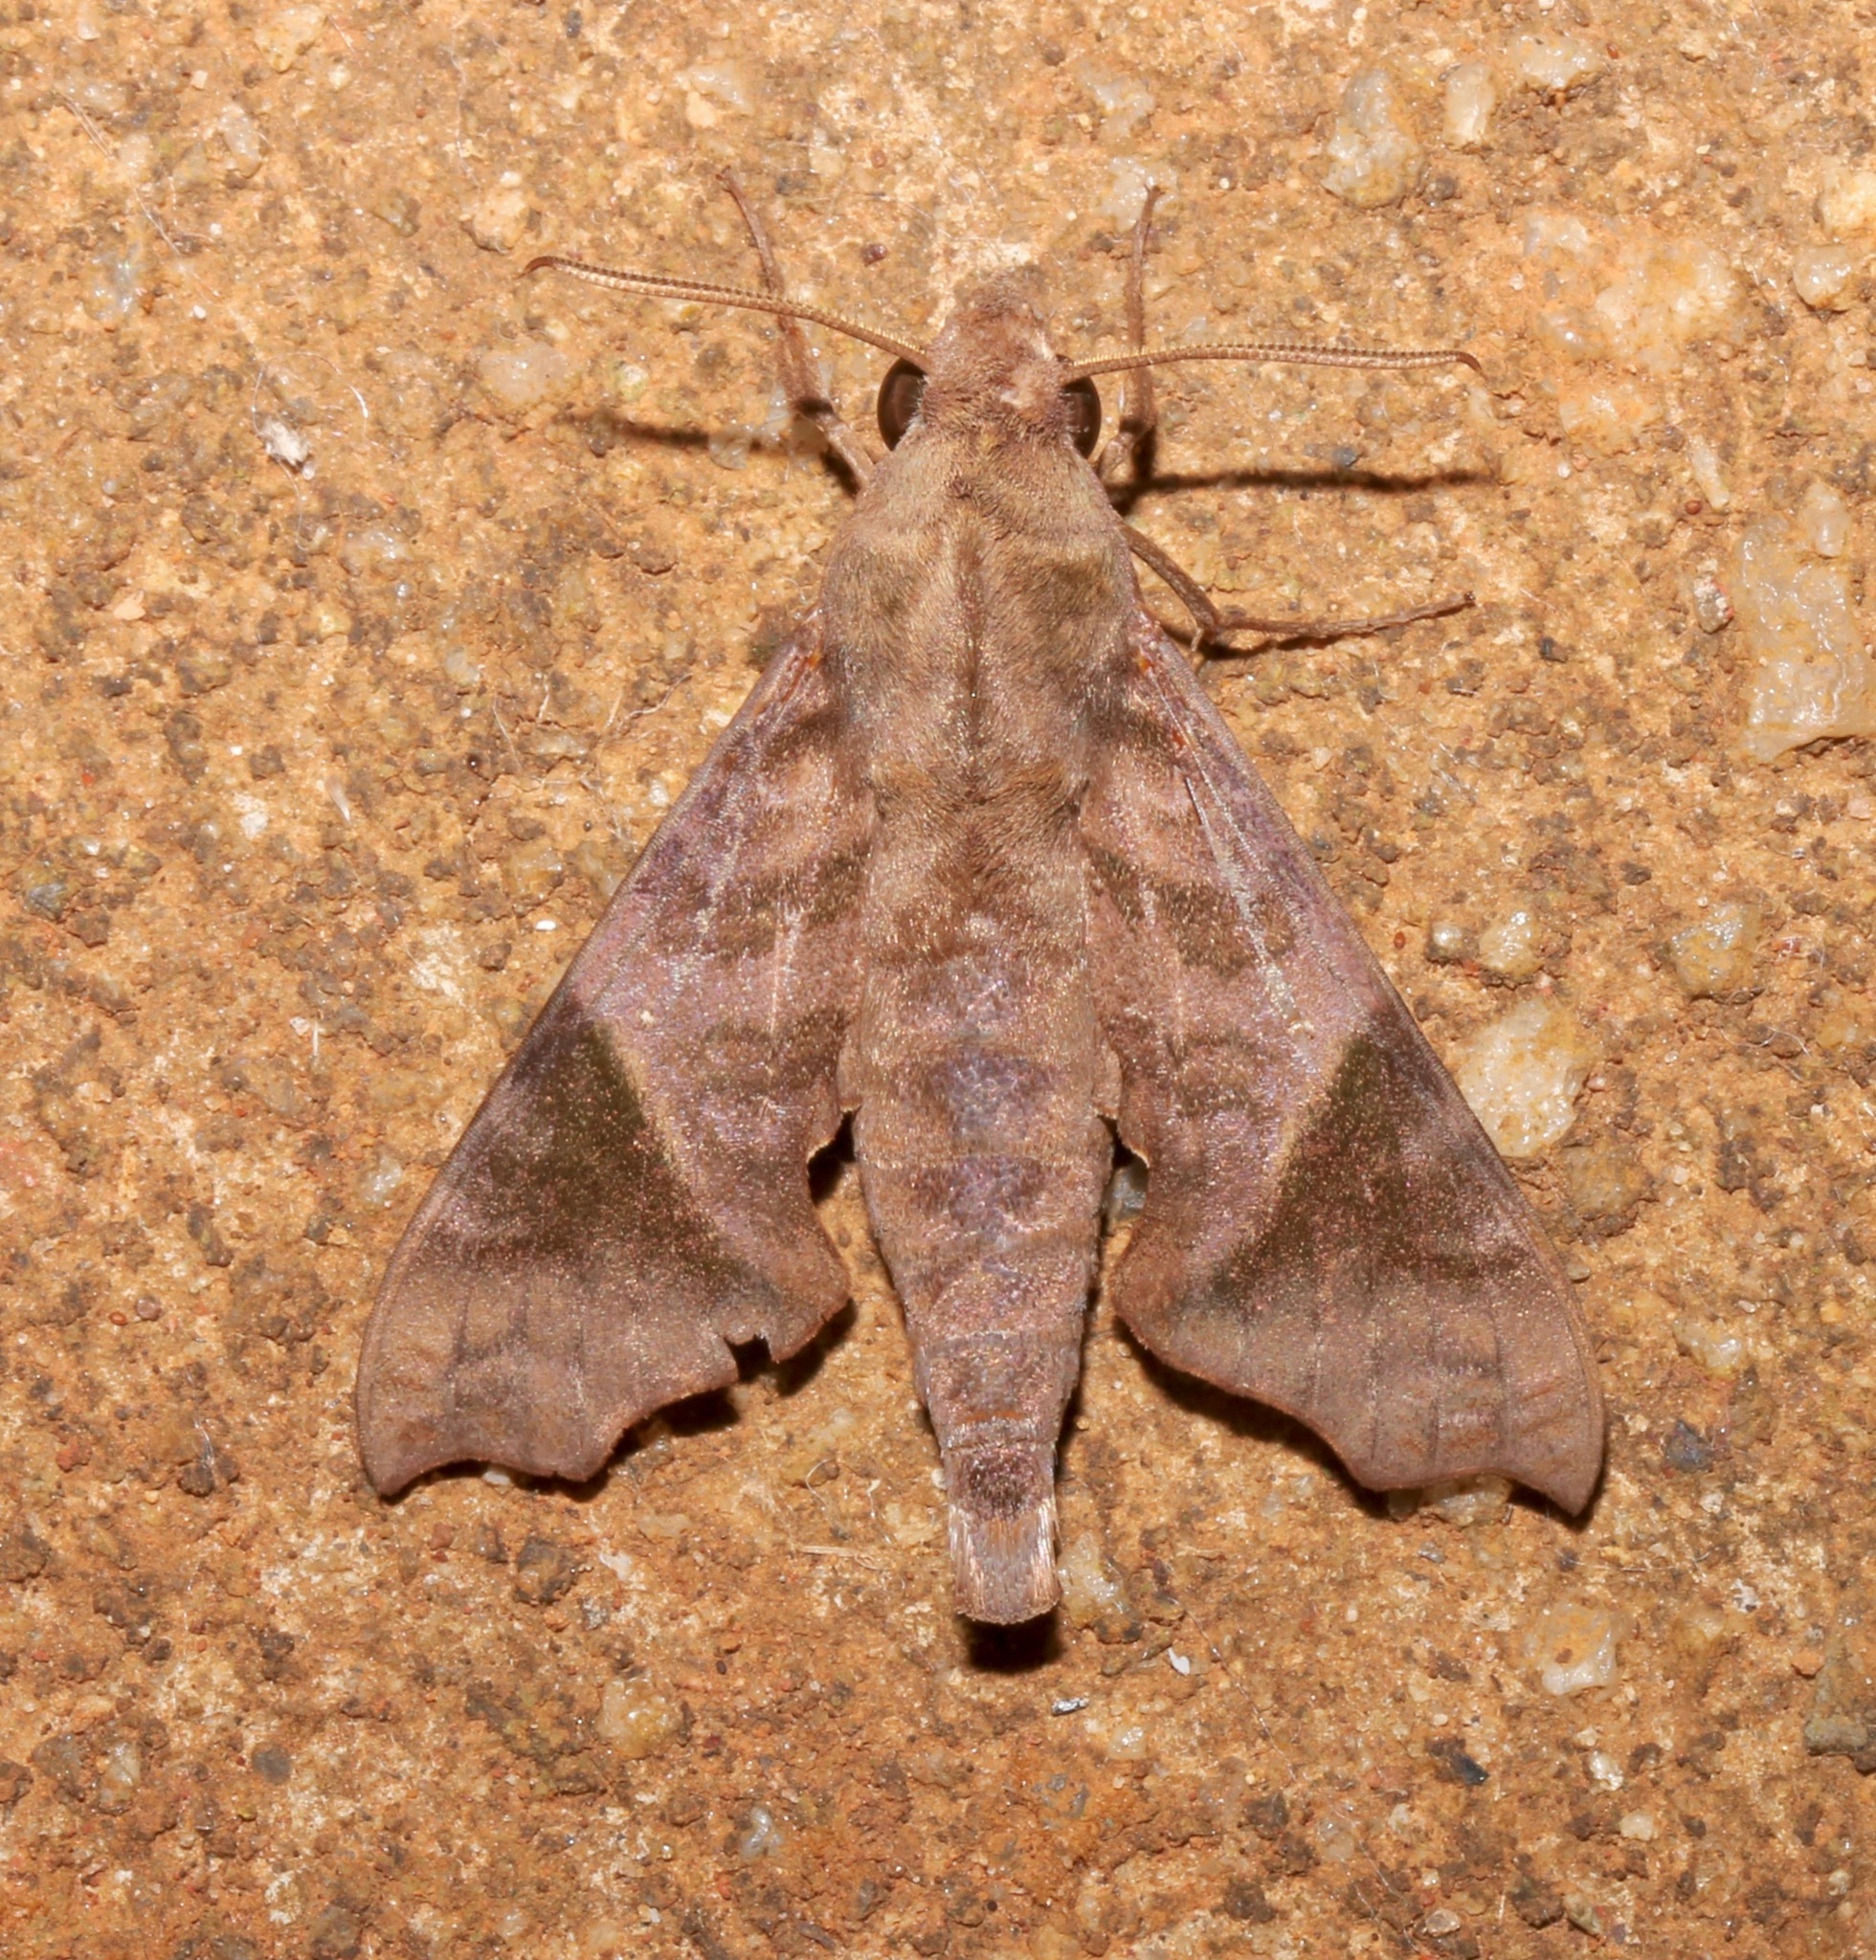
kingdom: Animalia
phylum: Arthropoda
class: Insecta
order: Lepidoptera
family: Sphingidae
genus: Temnora
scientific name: Temnora sardanus
